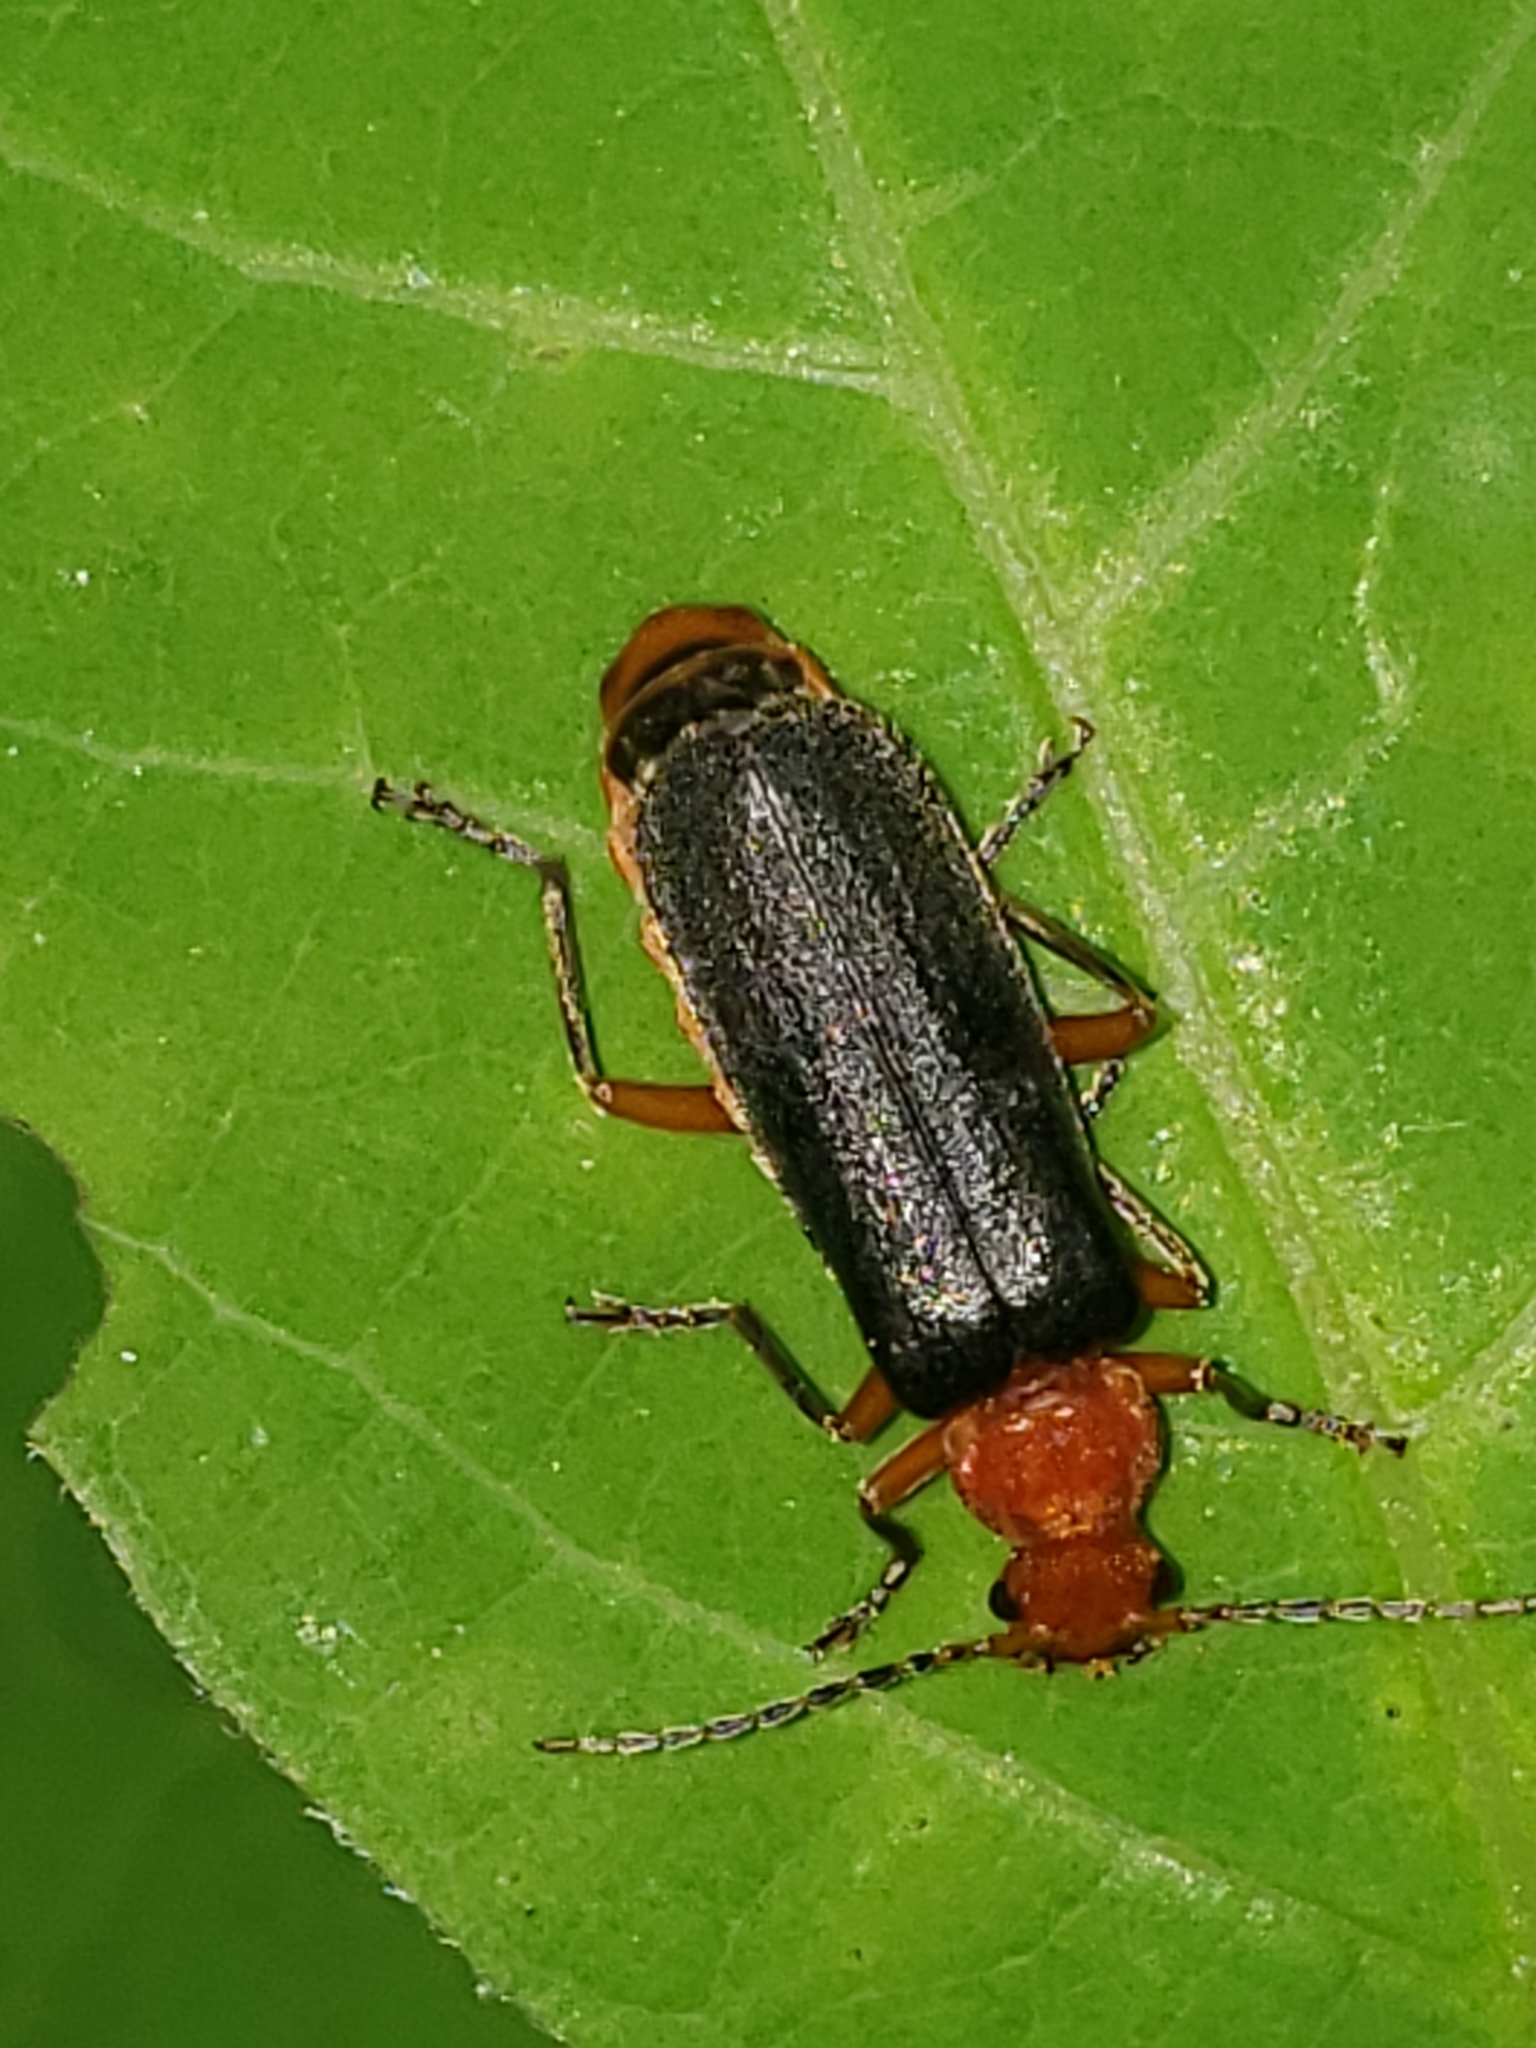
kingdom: Animalia
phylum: Arthropoda
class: Insecta
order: Coleoptera
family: Cantharidae
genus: Podabrus
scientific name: Podabrus tomentosus
